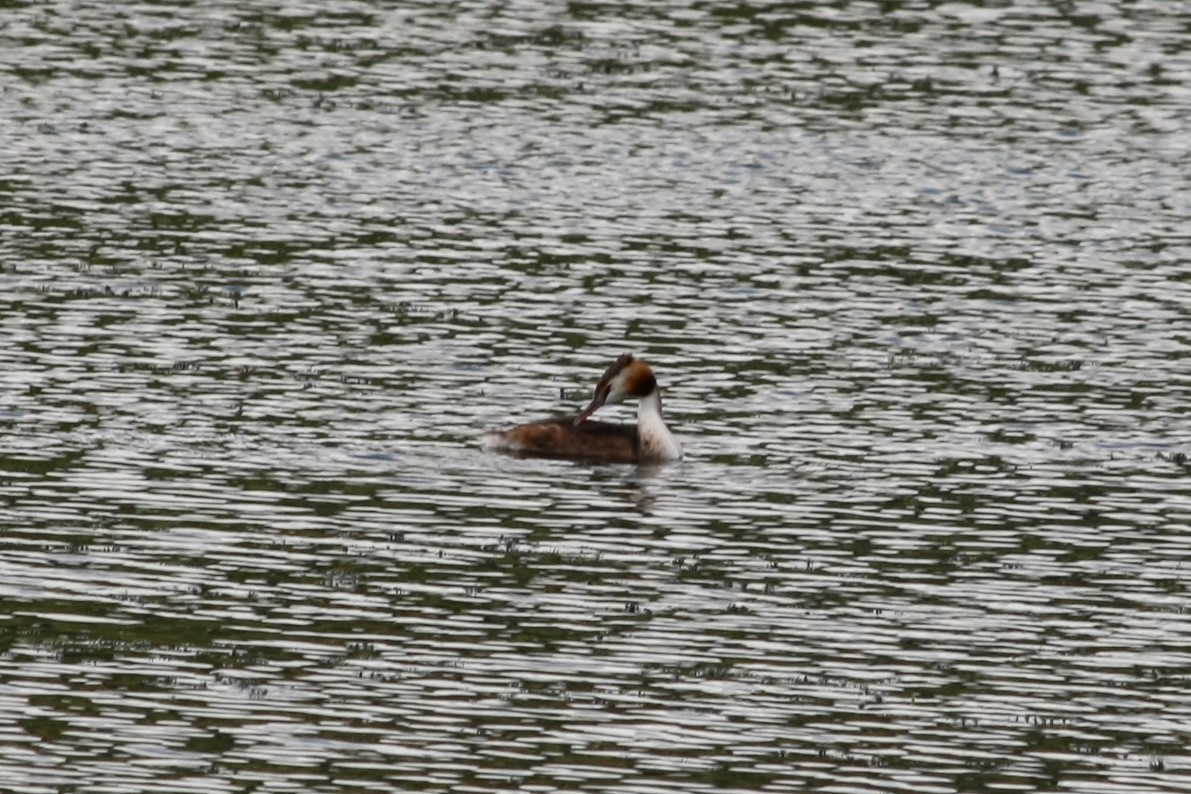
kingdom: Animalia
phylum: Chordata
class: Aves
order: Podicipediformes
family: Podicipedidae
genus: Podiceps
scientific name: Podiceps cristatus
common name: Great crested grebe
